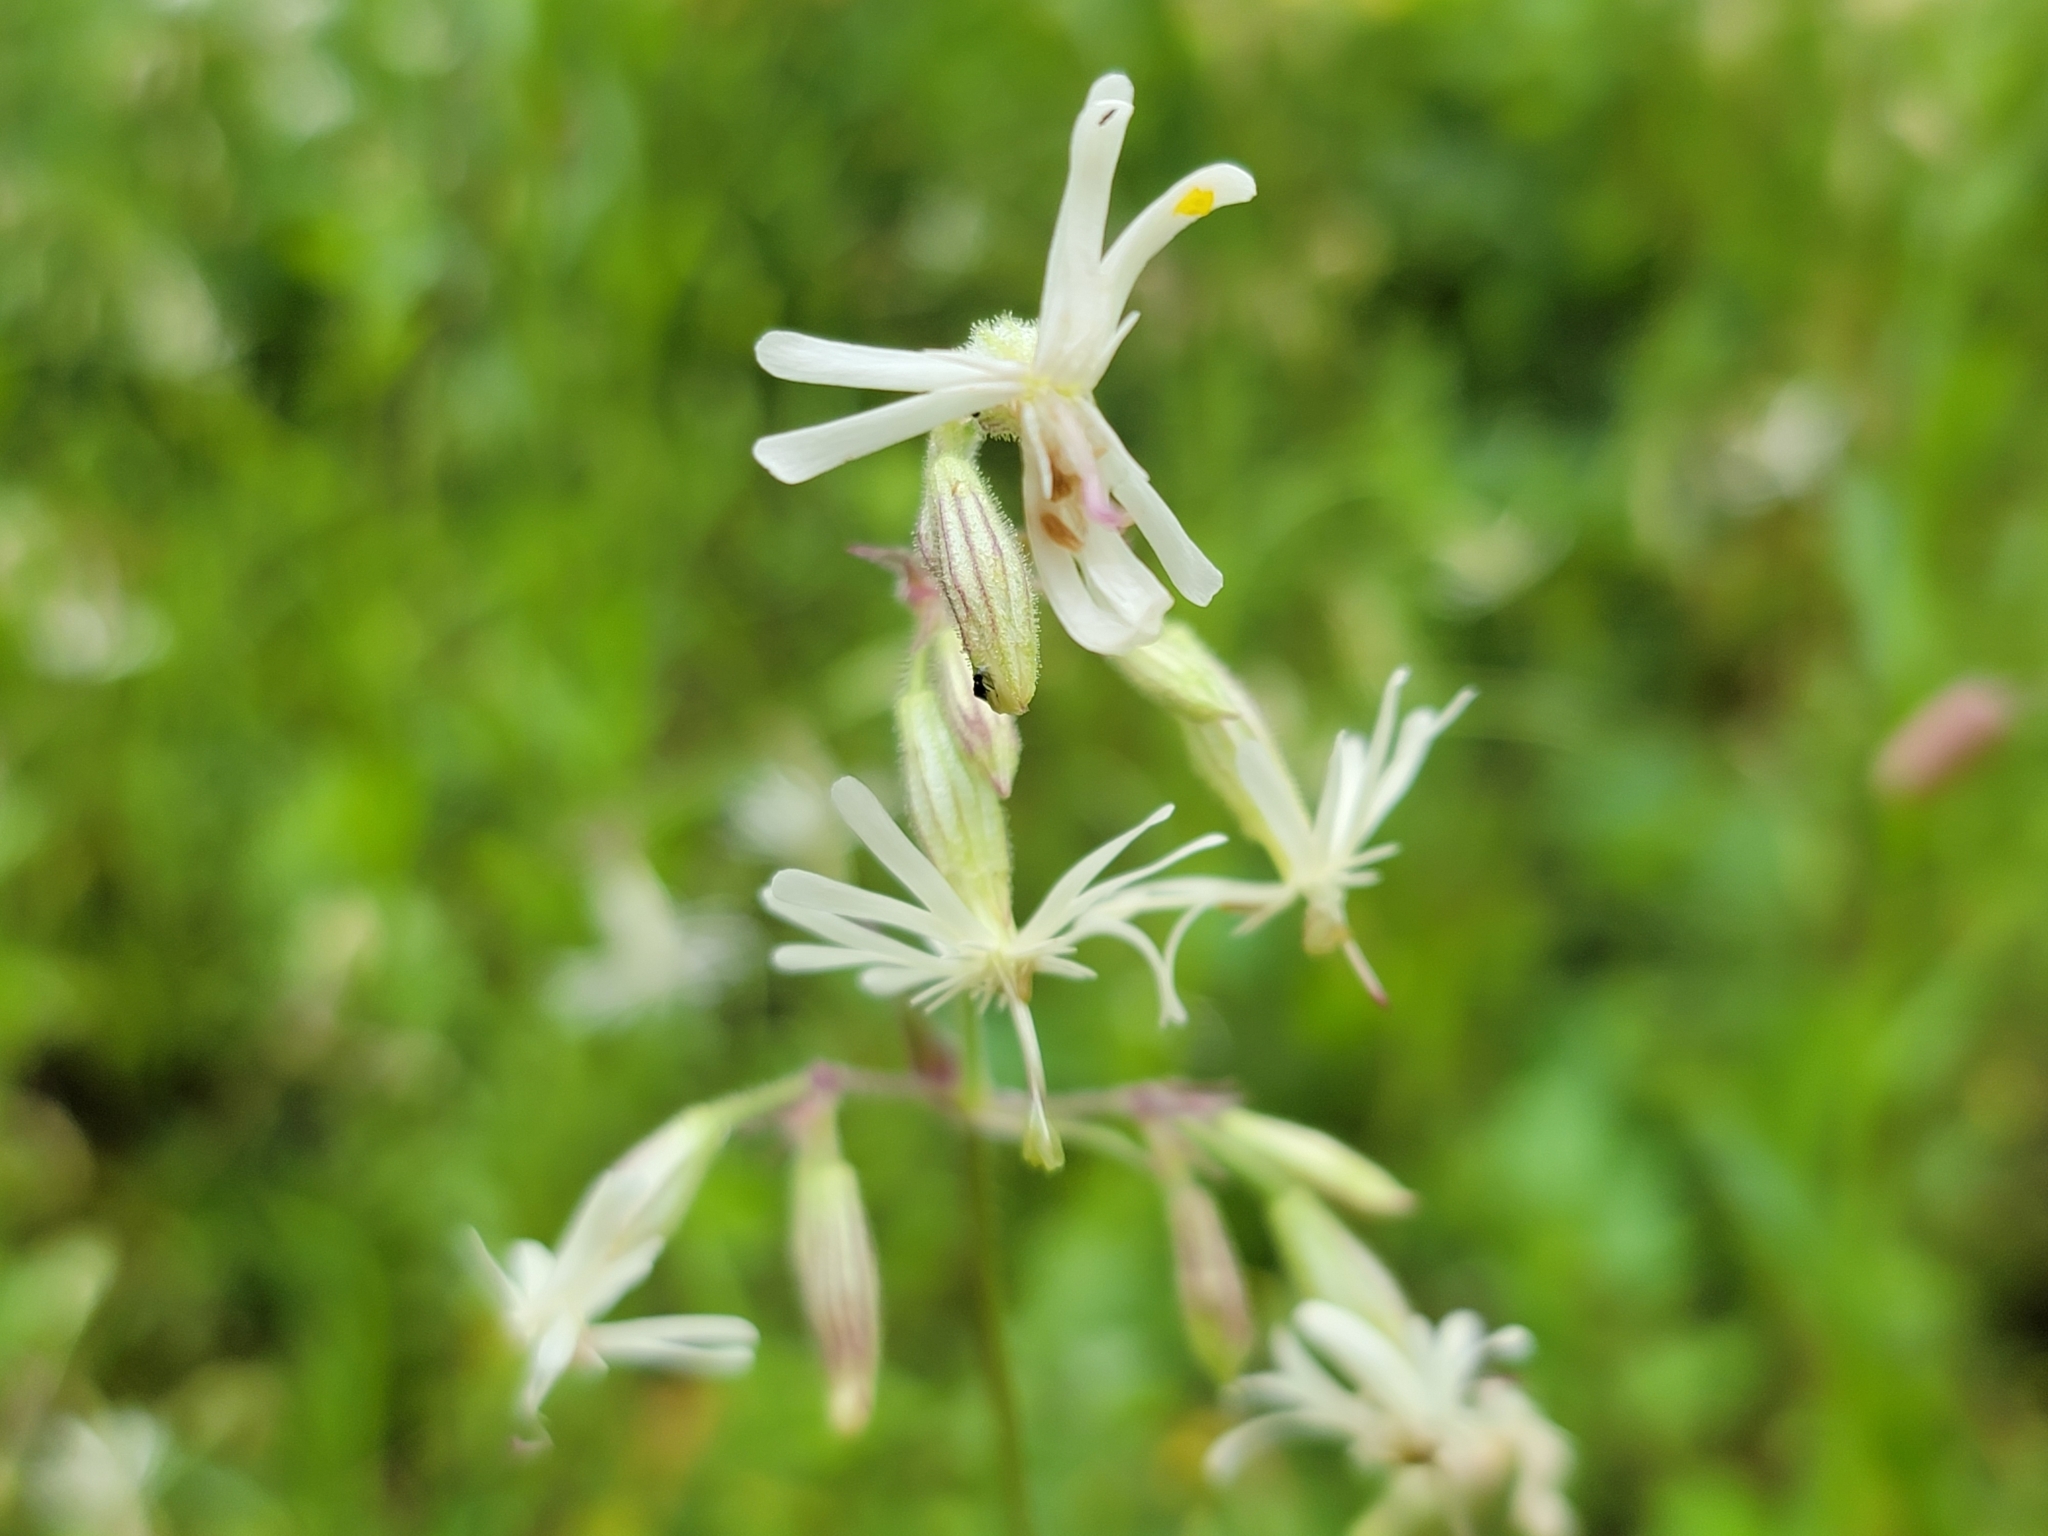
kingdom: Plantae
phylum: Tracheophyta
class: Magnoliopsida
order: Caryophyllales
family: Caryophyllaceae
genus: Silene
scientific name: Silene nutans
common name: Nottingham catchfly
